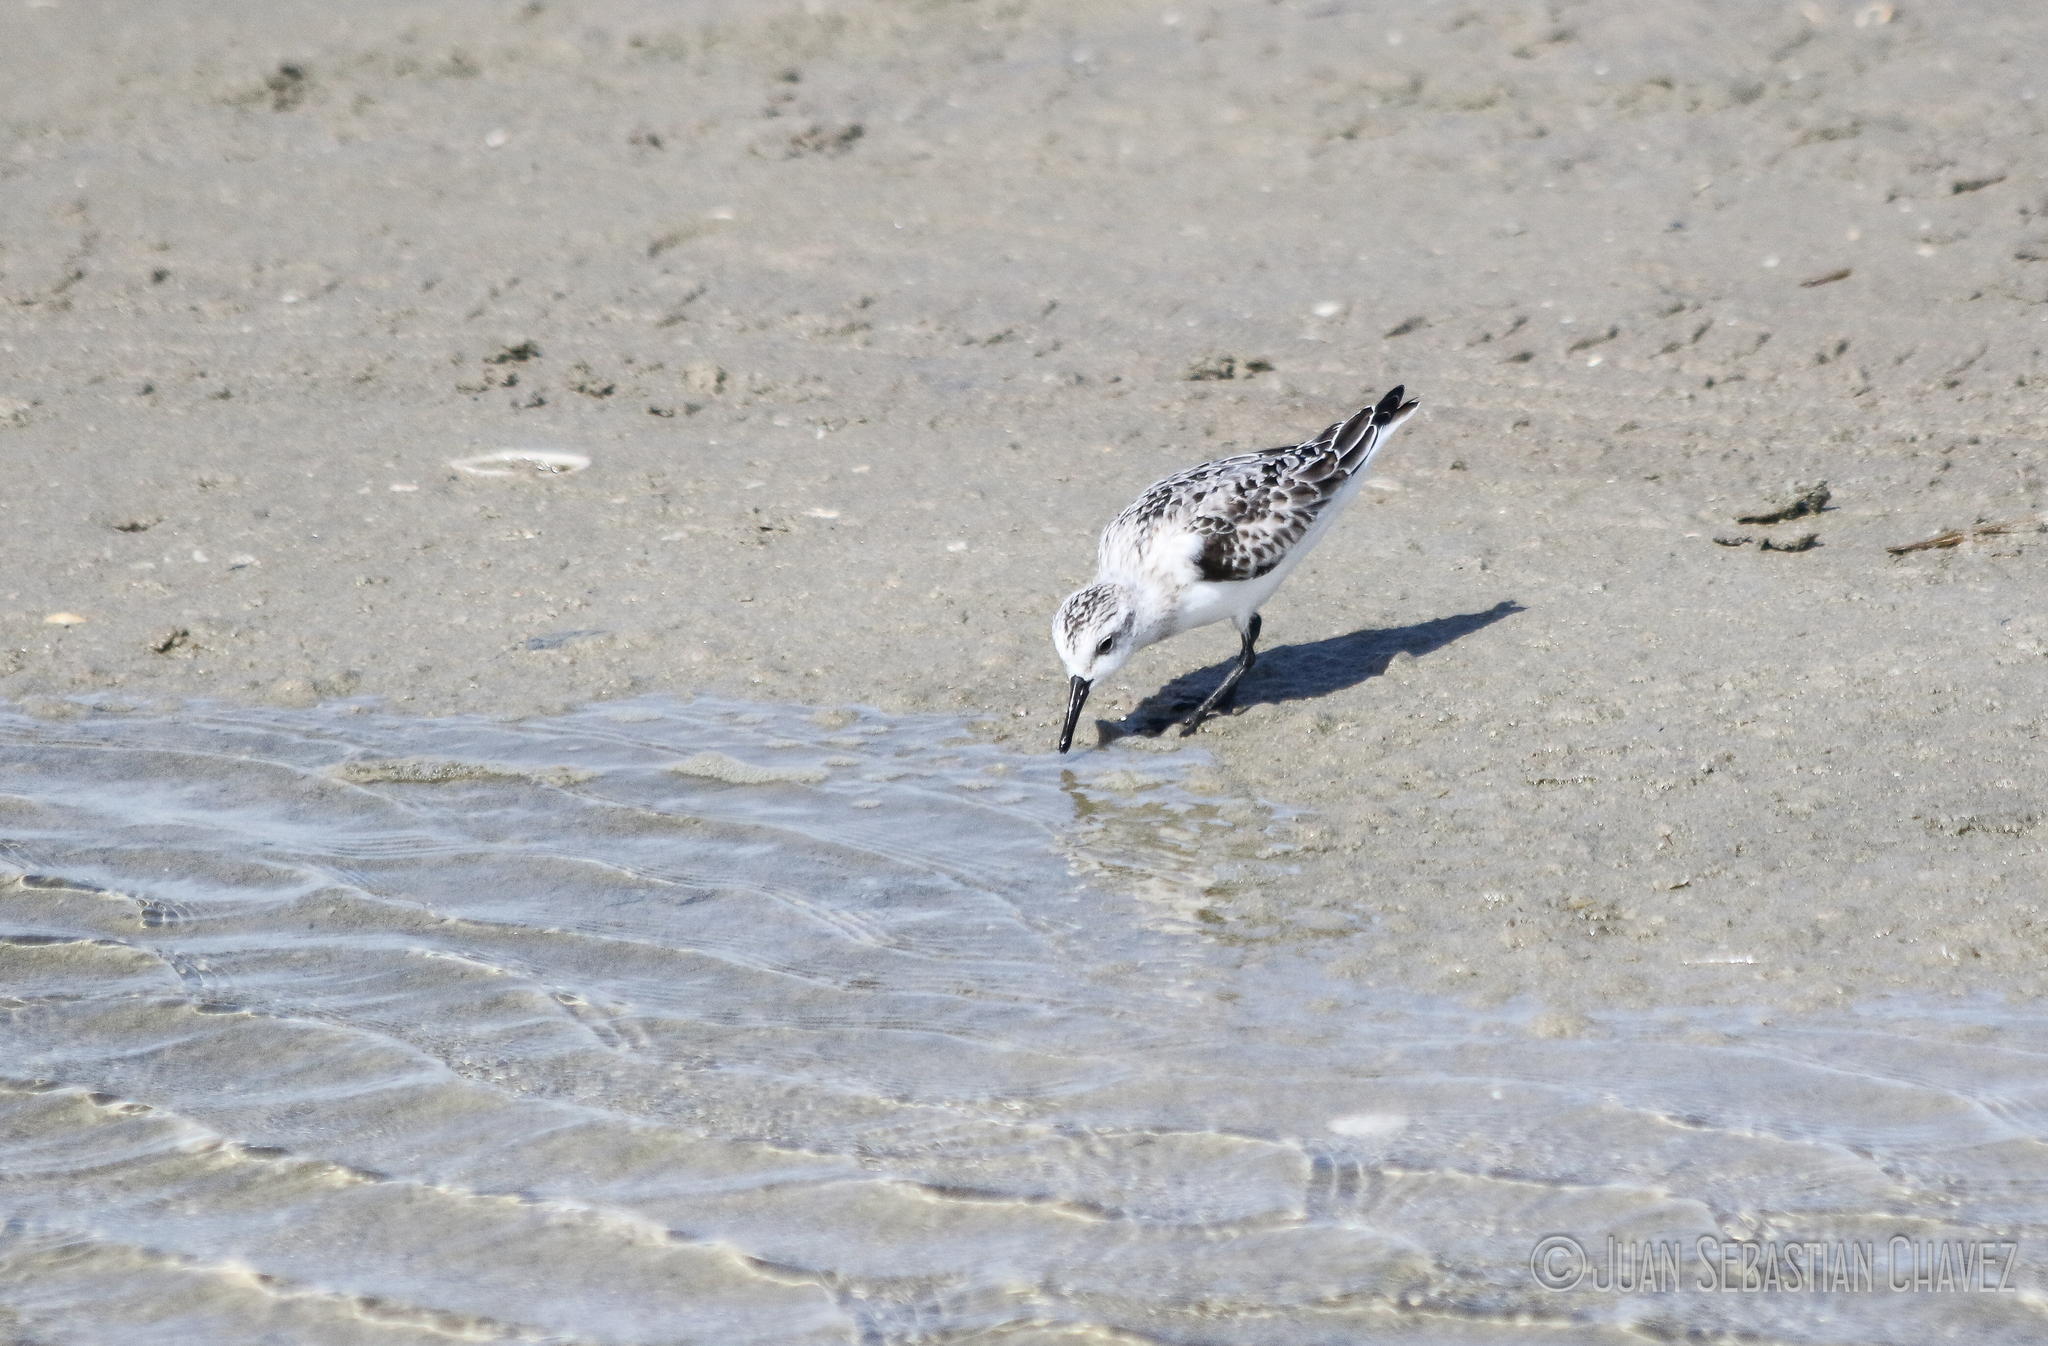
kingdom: Animalia
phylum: Chordata
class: Aves
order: Charadriiformes
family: Scolopacidae
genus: Calidris
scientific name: Calidris alba
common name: Sanderling
